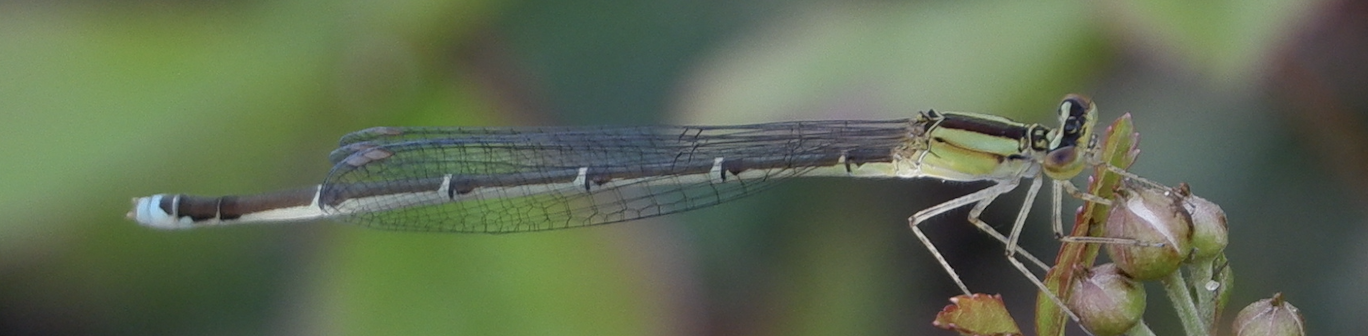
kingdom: Animalia
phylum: Arthropoda
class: Insecta
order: Odonata
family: Coenagrionidae
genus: Enallagma
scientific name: Enallagma vesperum
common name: Vesper bluet
